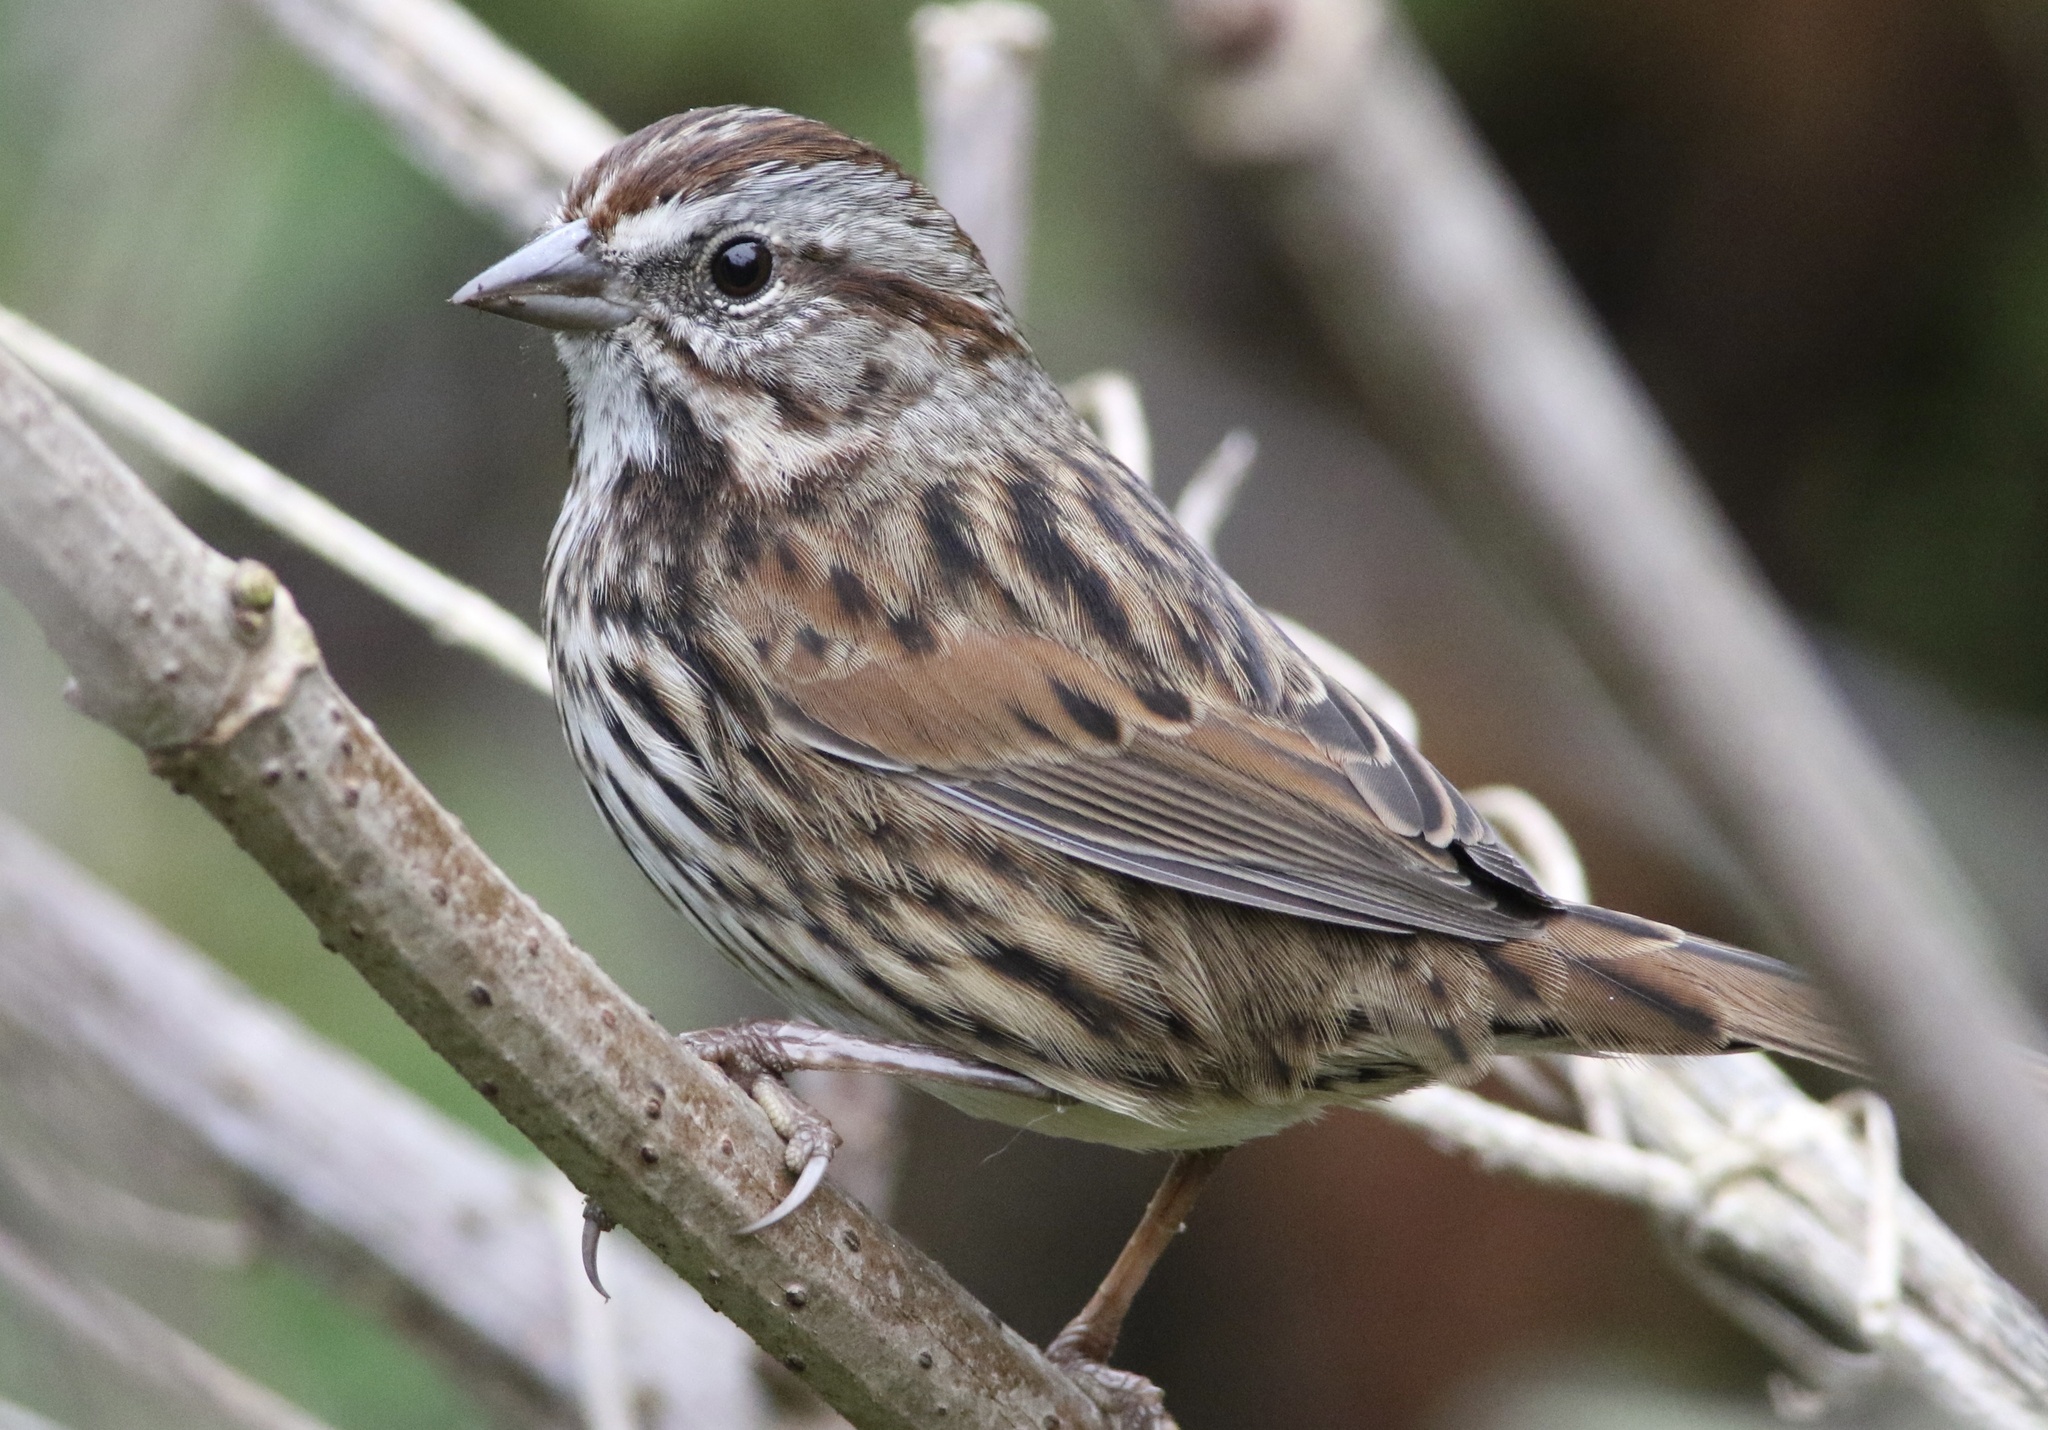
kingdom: Animalia
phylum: Chordata
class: Aves
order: Passeriformes
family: Passerellidae
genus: Melospiza
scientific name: Melospiza melodia
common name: Song sparrow
